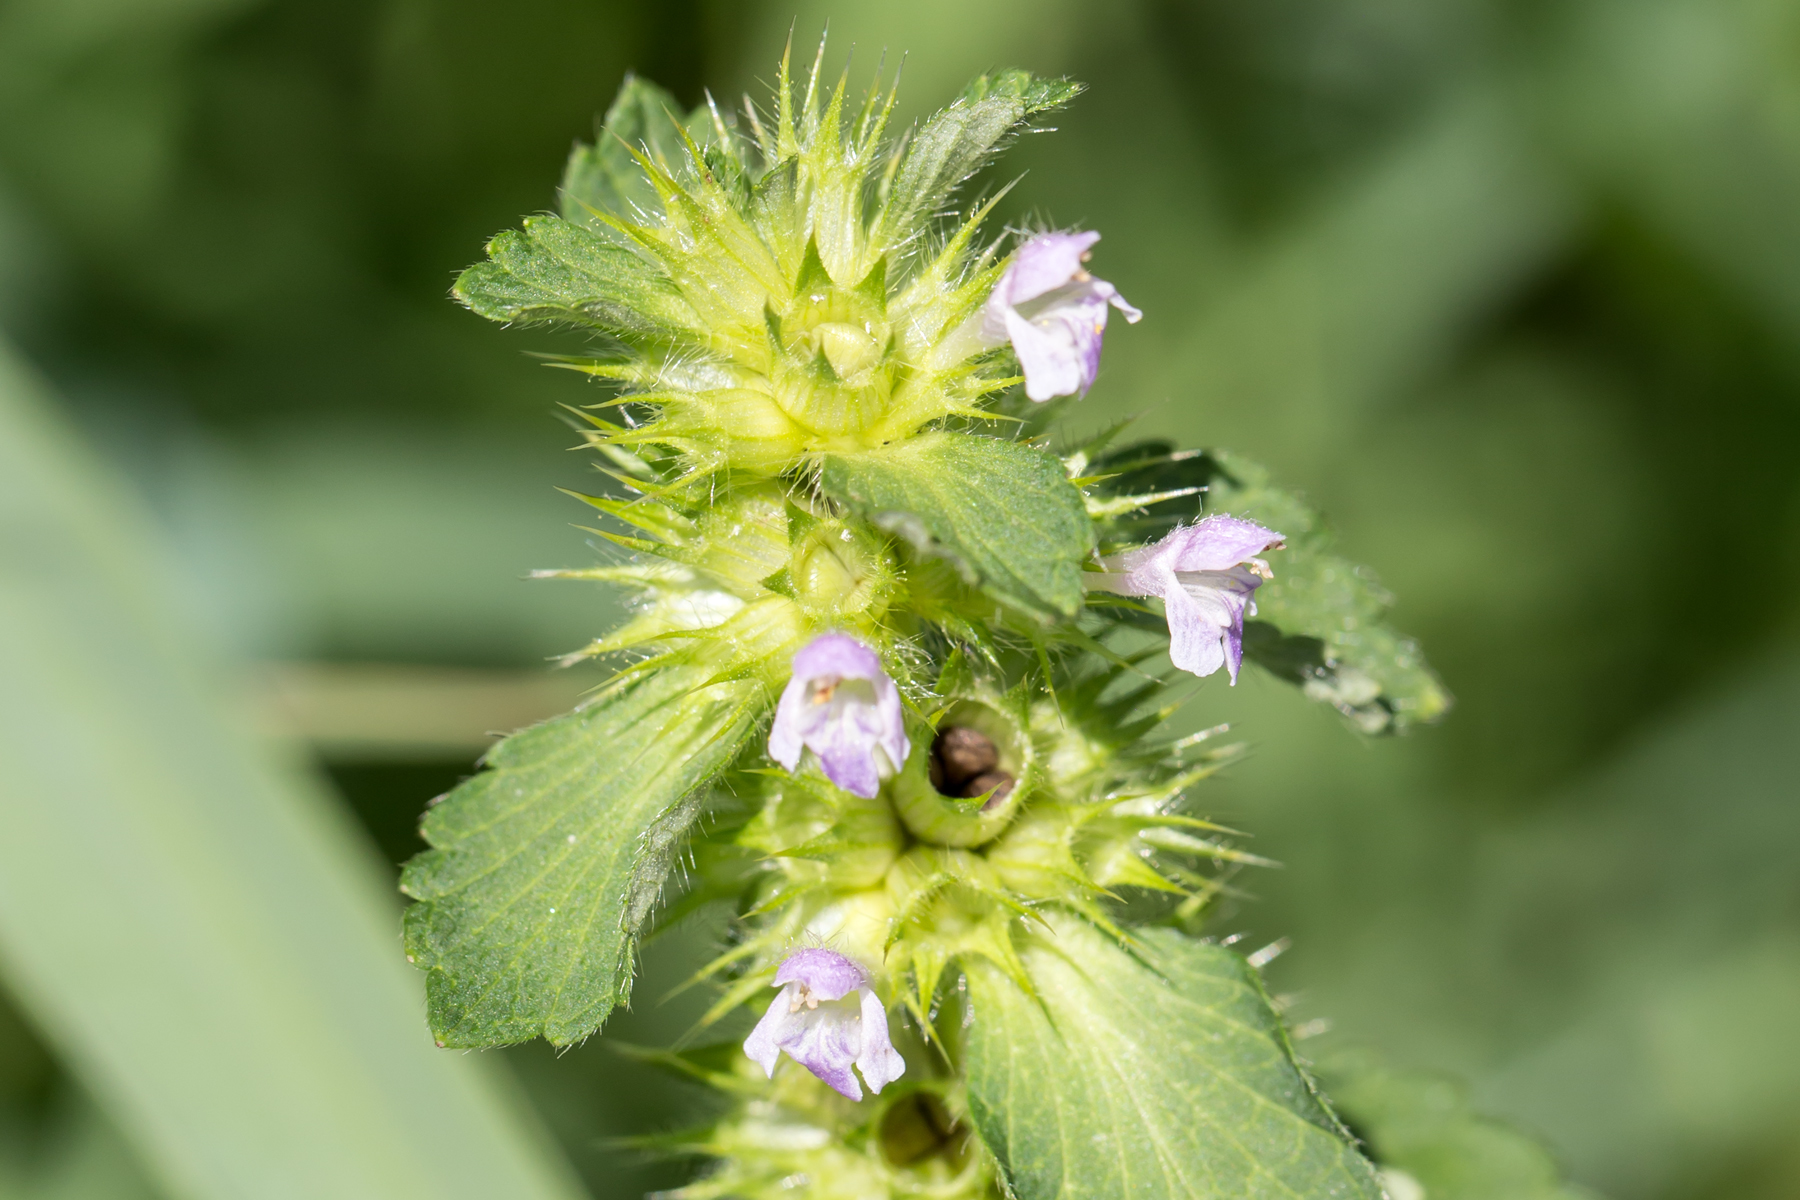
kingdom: Plantae
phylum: Tracheophyta
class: Magnoliopsida
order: Lamiales
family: Lamiaceae
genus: Galeopsis
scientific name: Galeopsis bifida
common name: Bifid hemp-nettle
